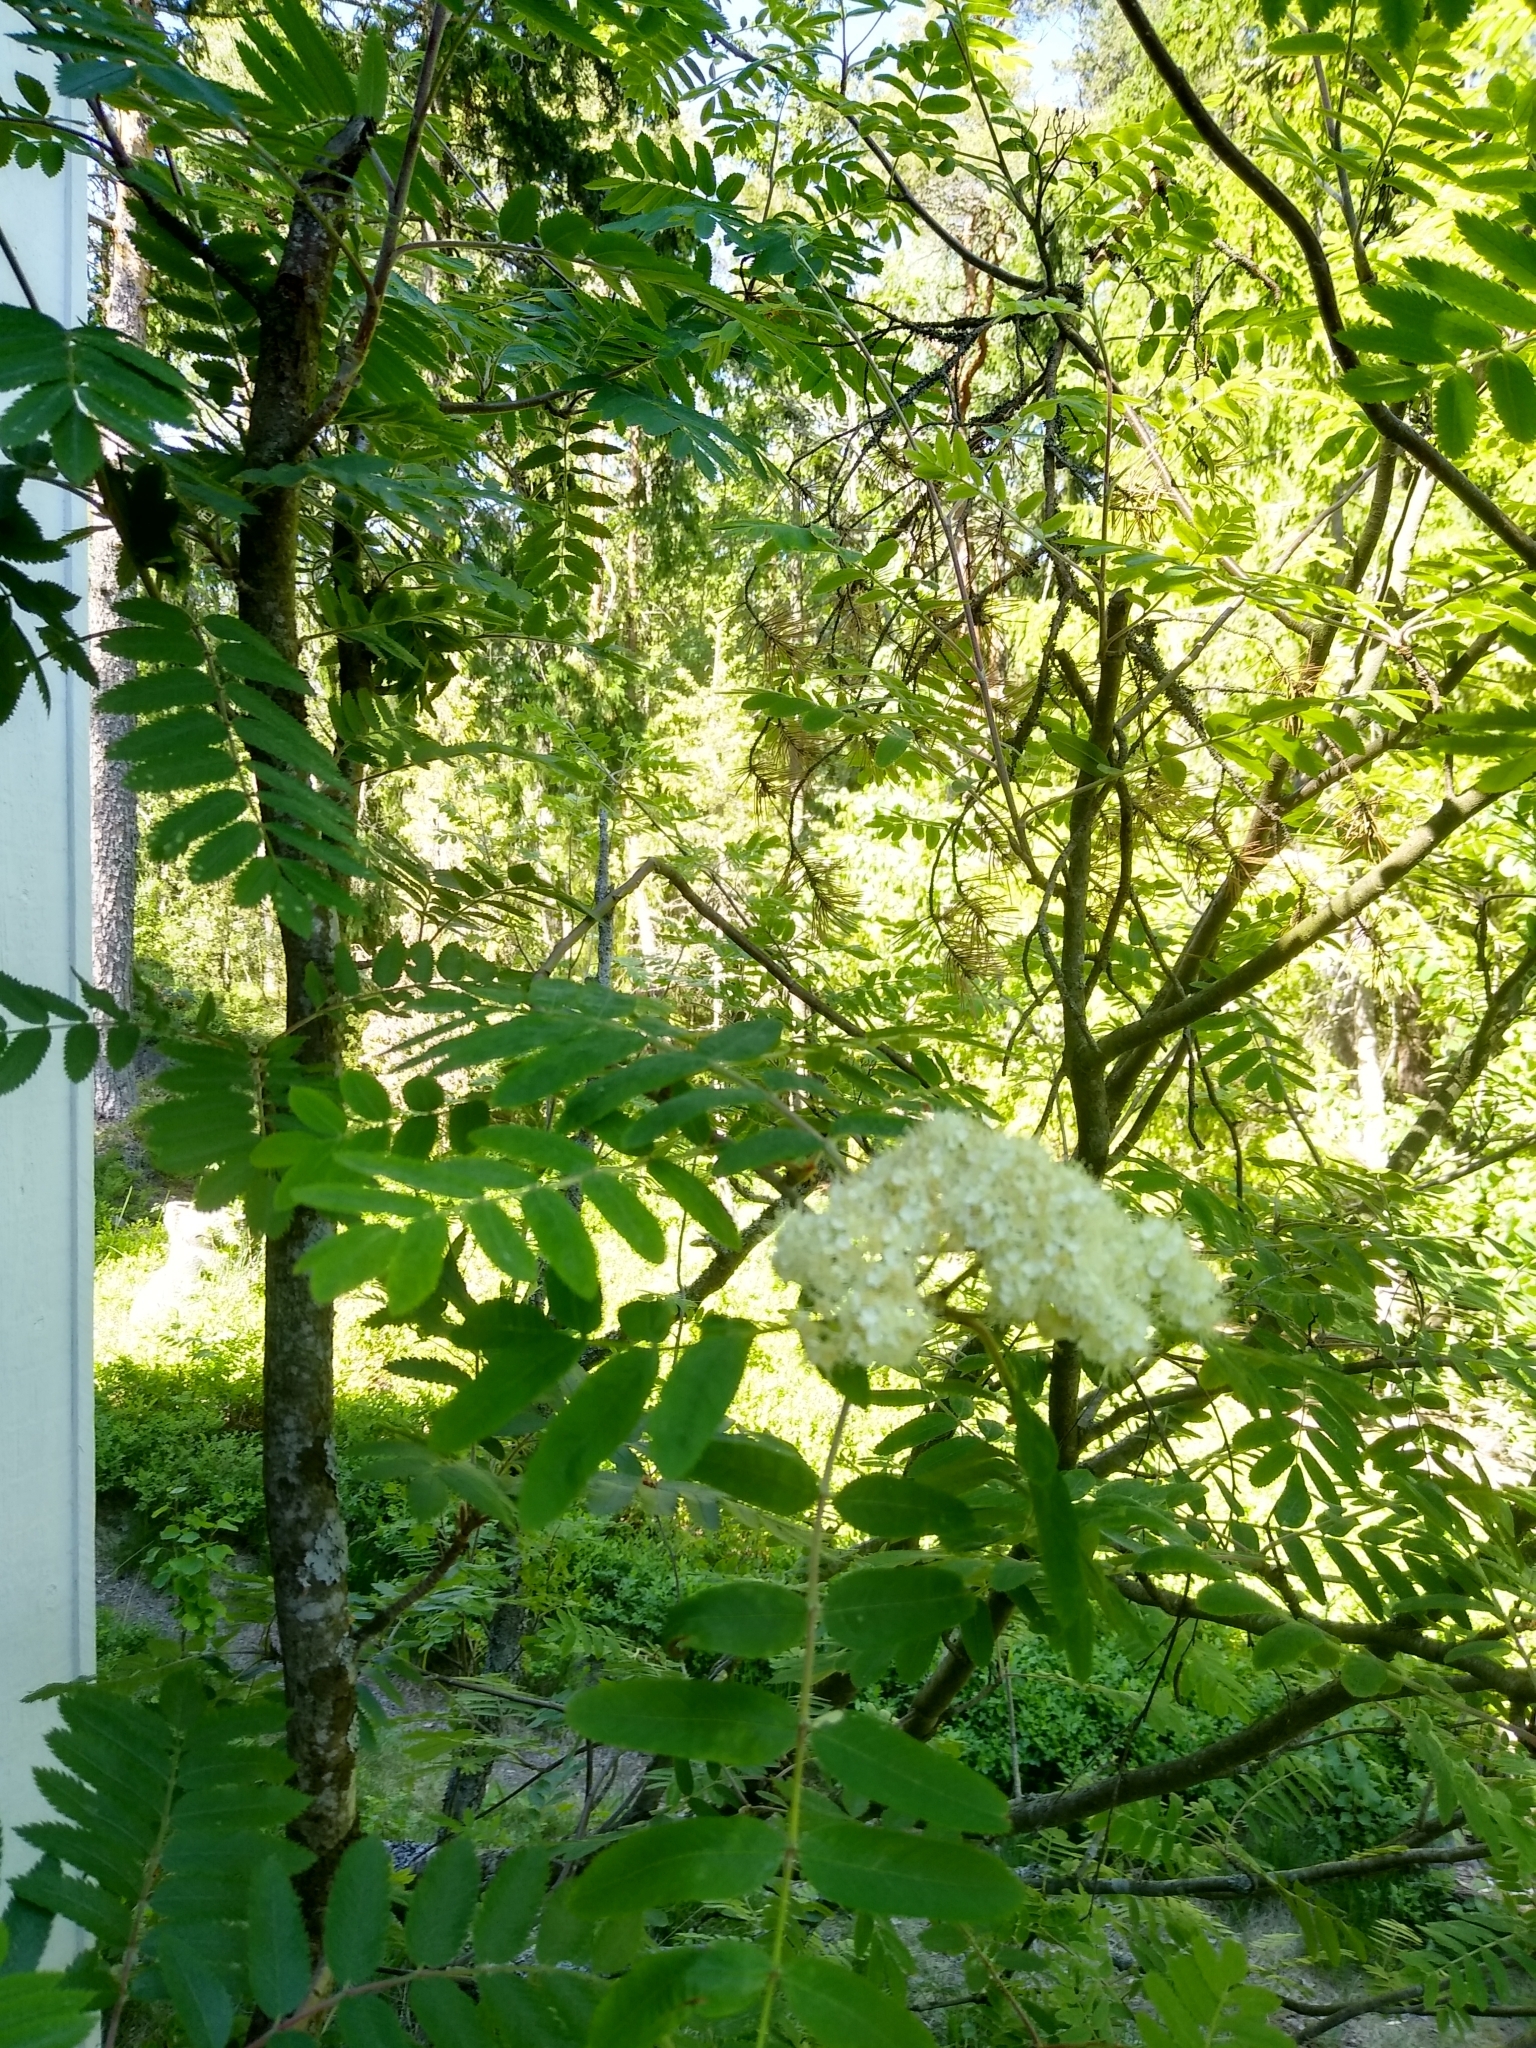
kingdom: Plantae
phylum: Tracheophyta
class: Magnoliopsida
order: Rosales
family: Rosaceae
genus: Sorbus
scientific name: Sorbus aucuparia
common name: Rowan
